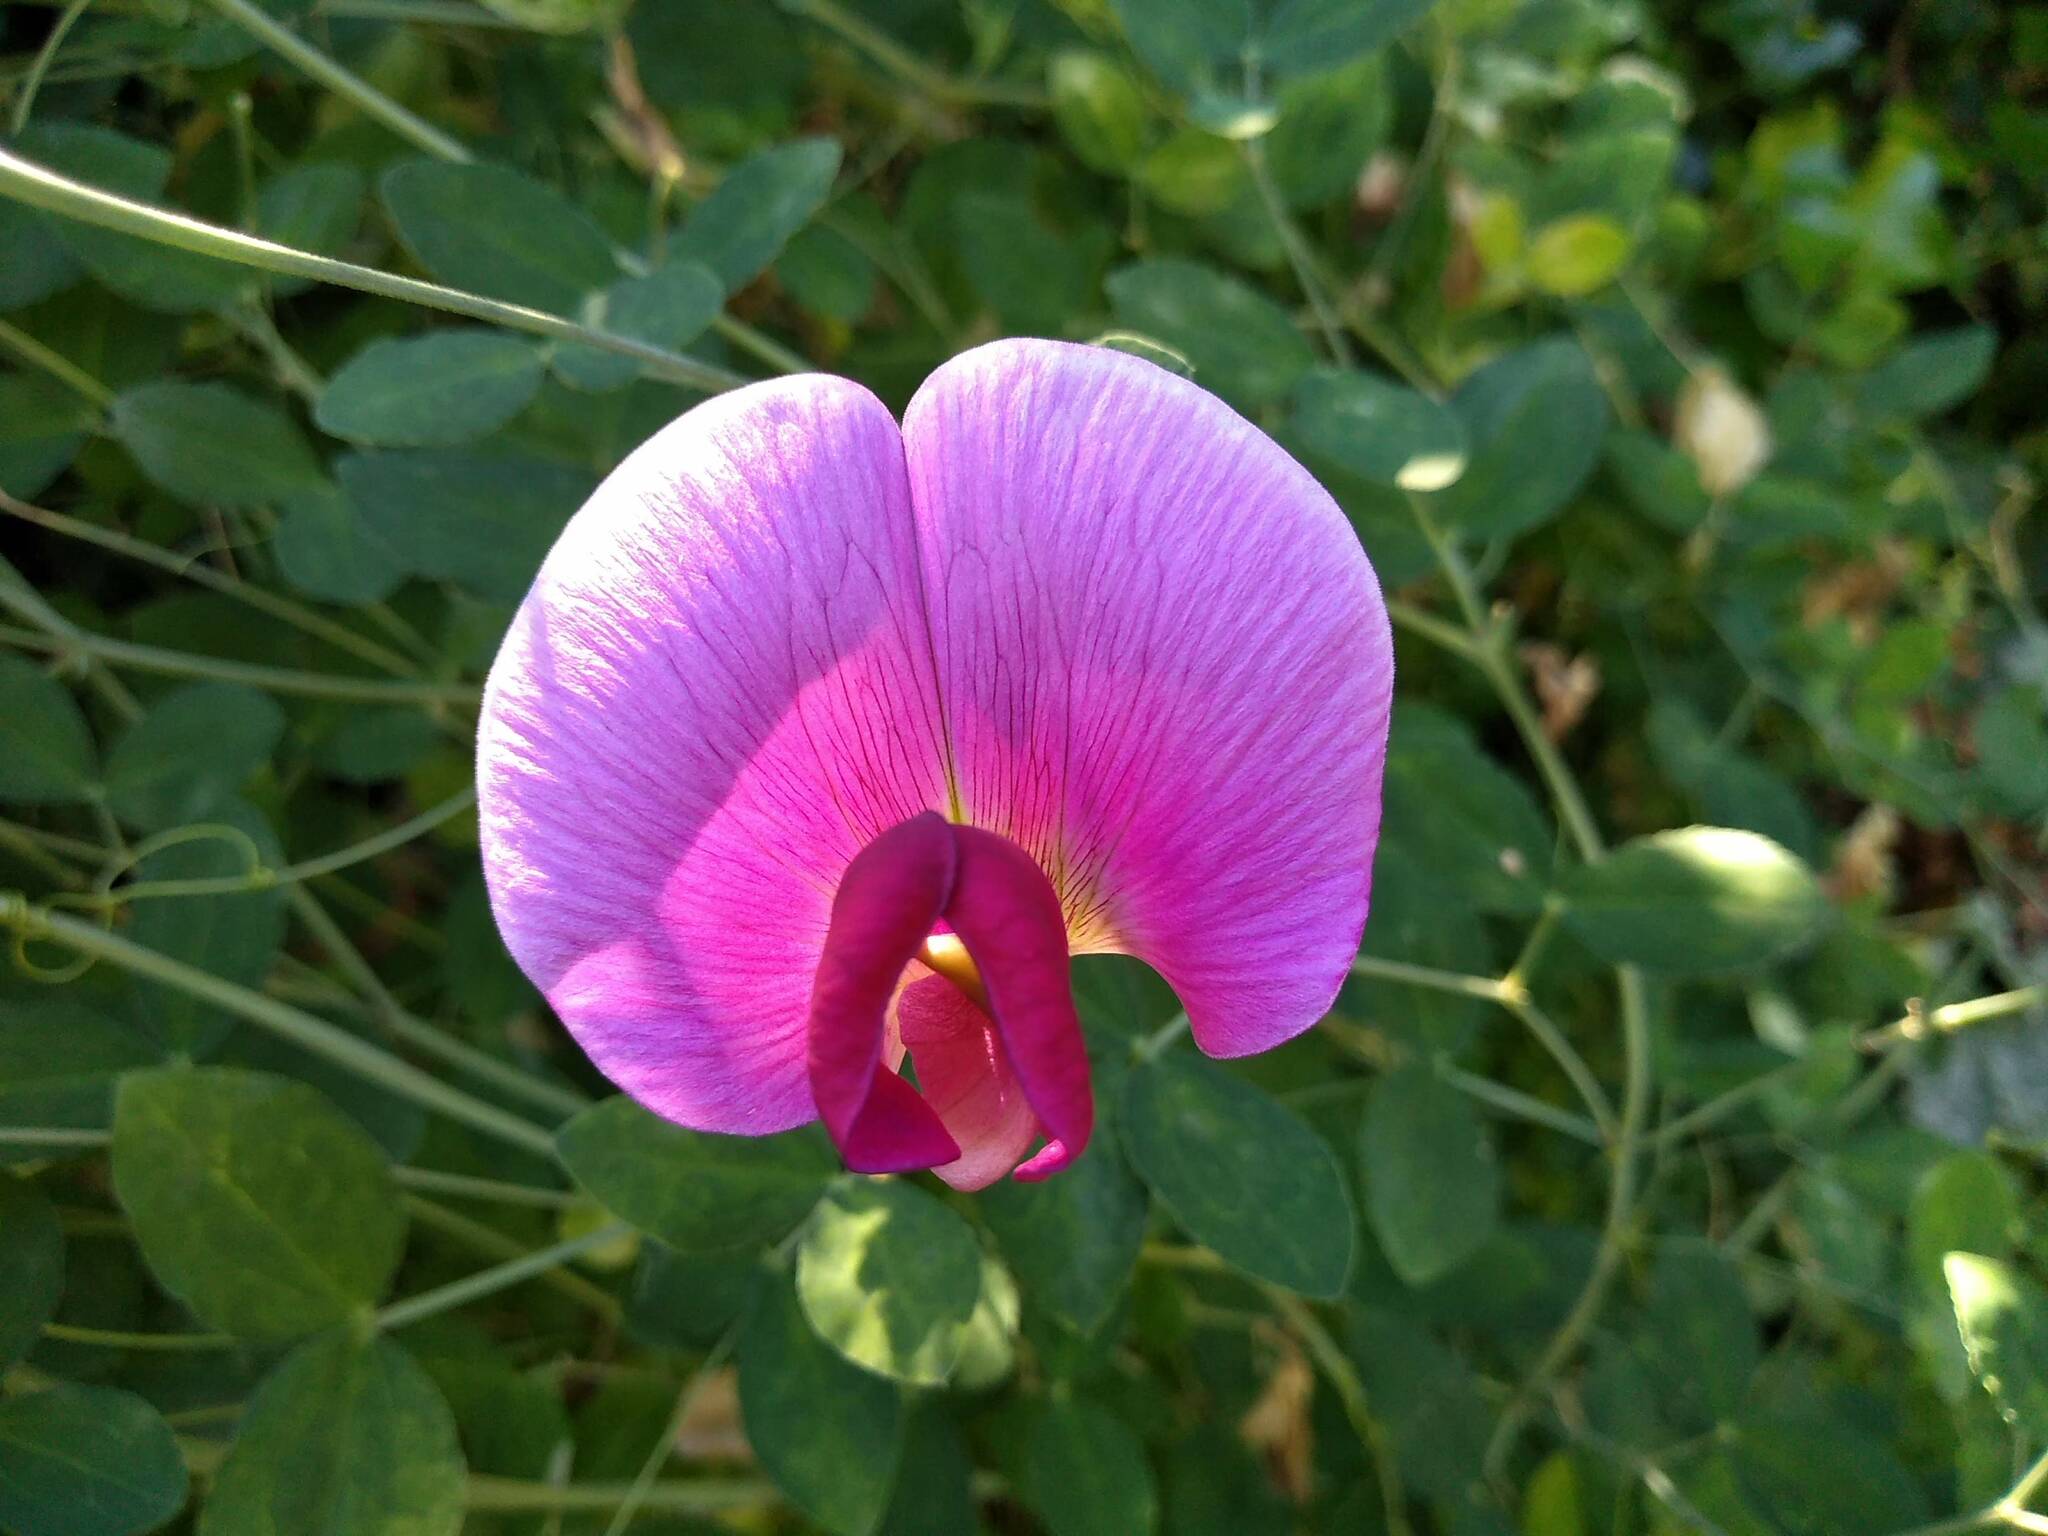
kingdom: Plantae
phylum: Tracheophyta
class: Magnoliopsida
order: Fabales
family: Fabaceae
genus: Lathyrus
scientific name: Lathyrus grandiflorus
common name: Two-flowered everlasting-pea
